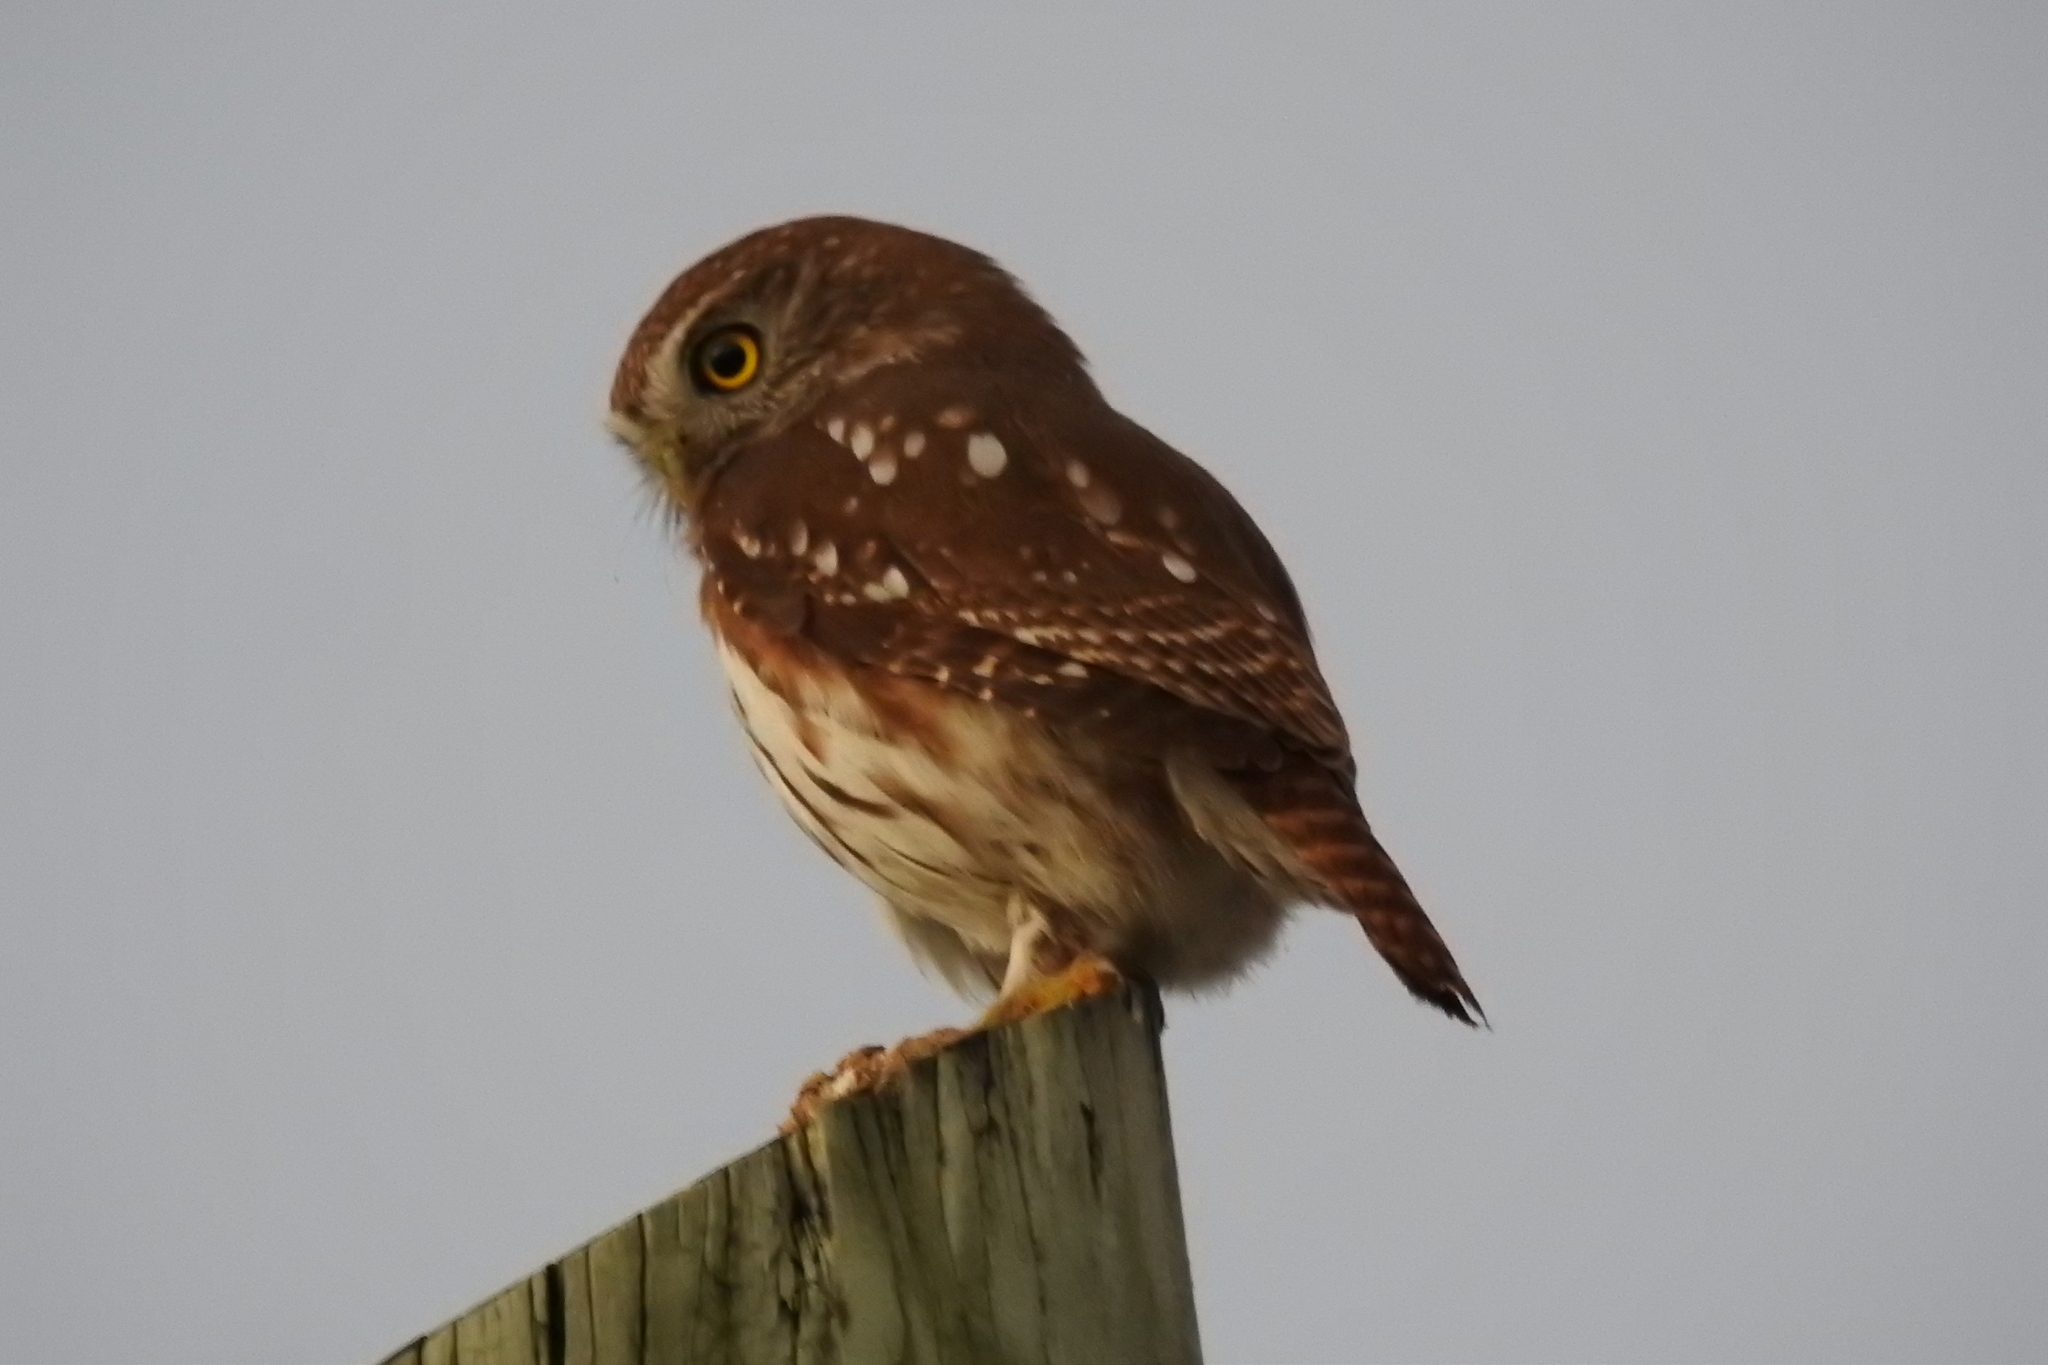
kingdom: Animalia
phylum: Chordata
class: Aves
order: Strigiformes
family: Strigidae
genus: Glaucidium
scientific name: Glaucidium brasilianum
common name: Ferruginous pygmy-owl
